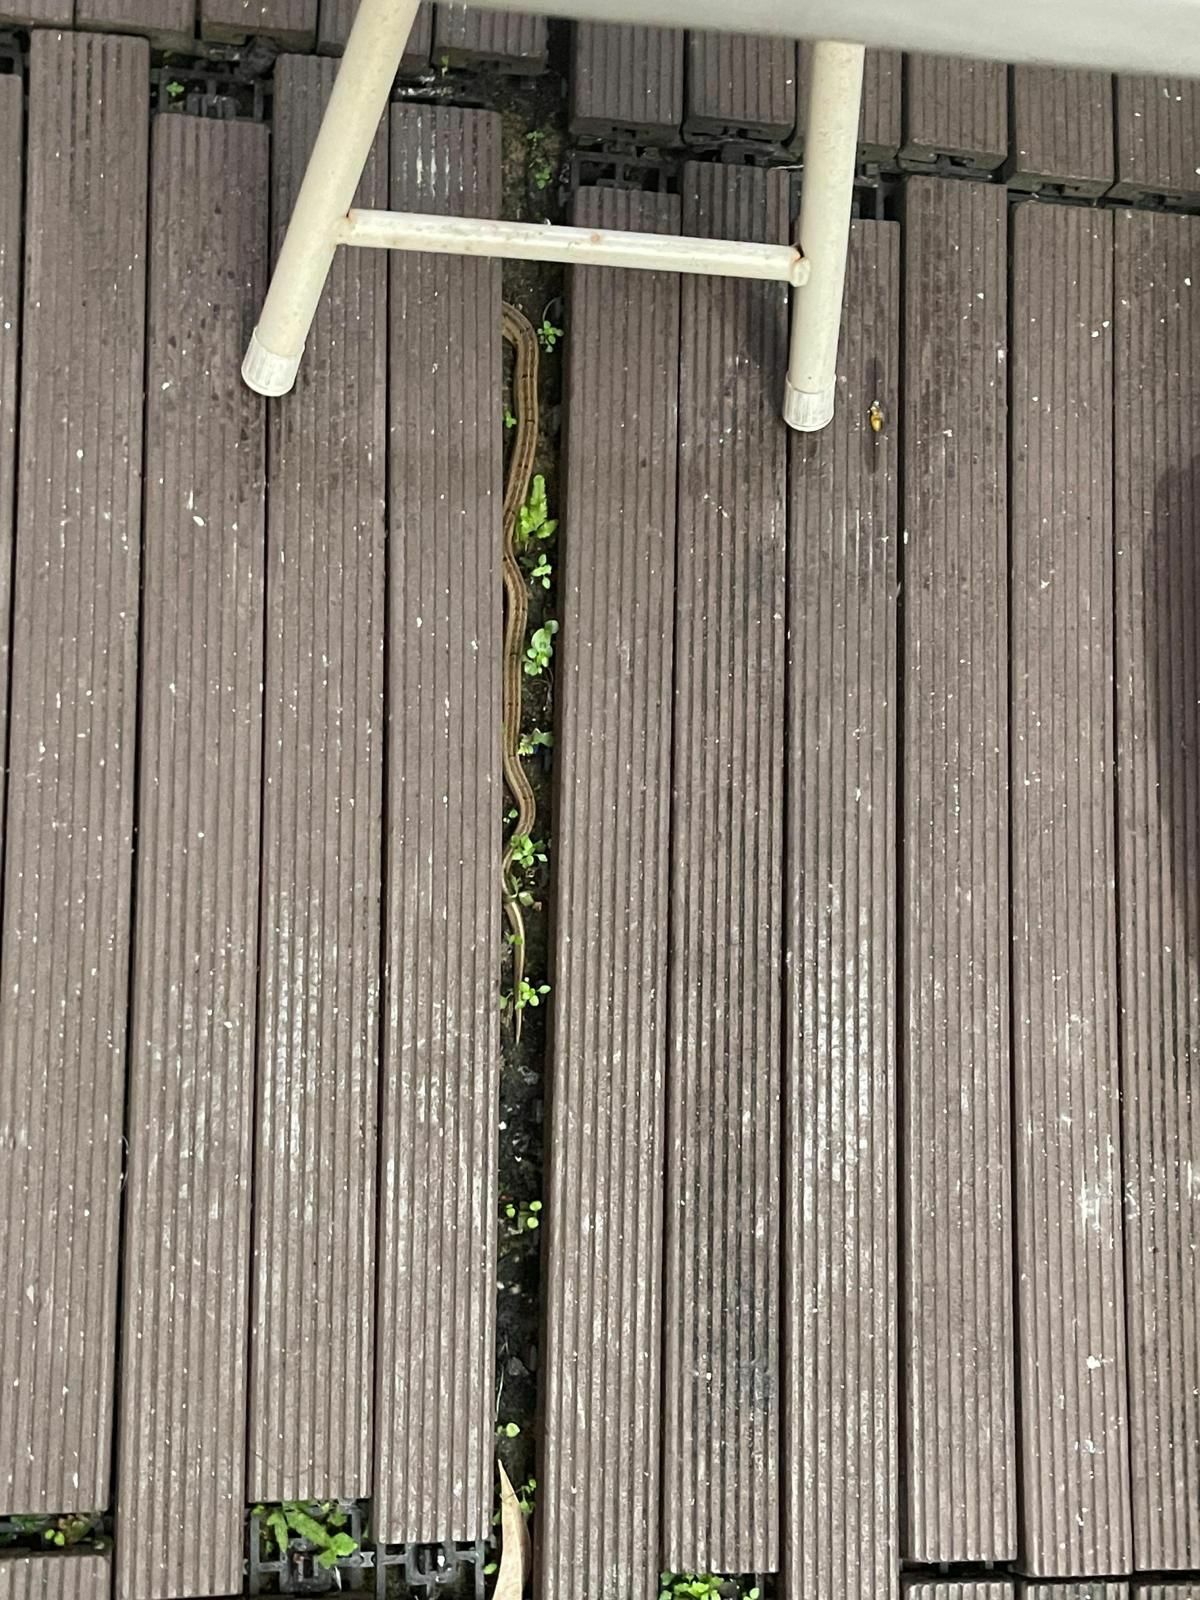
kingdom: Animalia
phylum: Chordata
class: Squamata
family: Colubridae
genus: Oligodon
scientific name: Oligodon formosanus
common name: Formosa kukri snake
